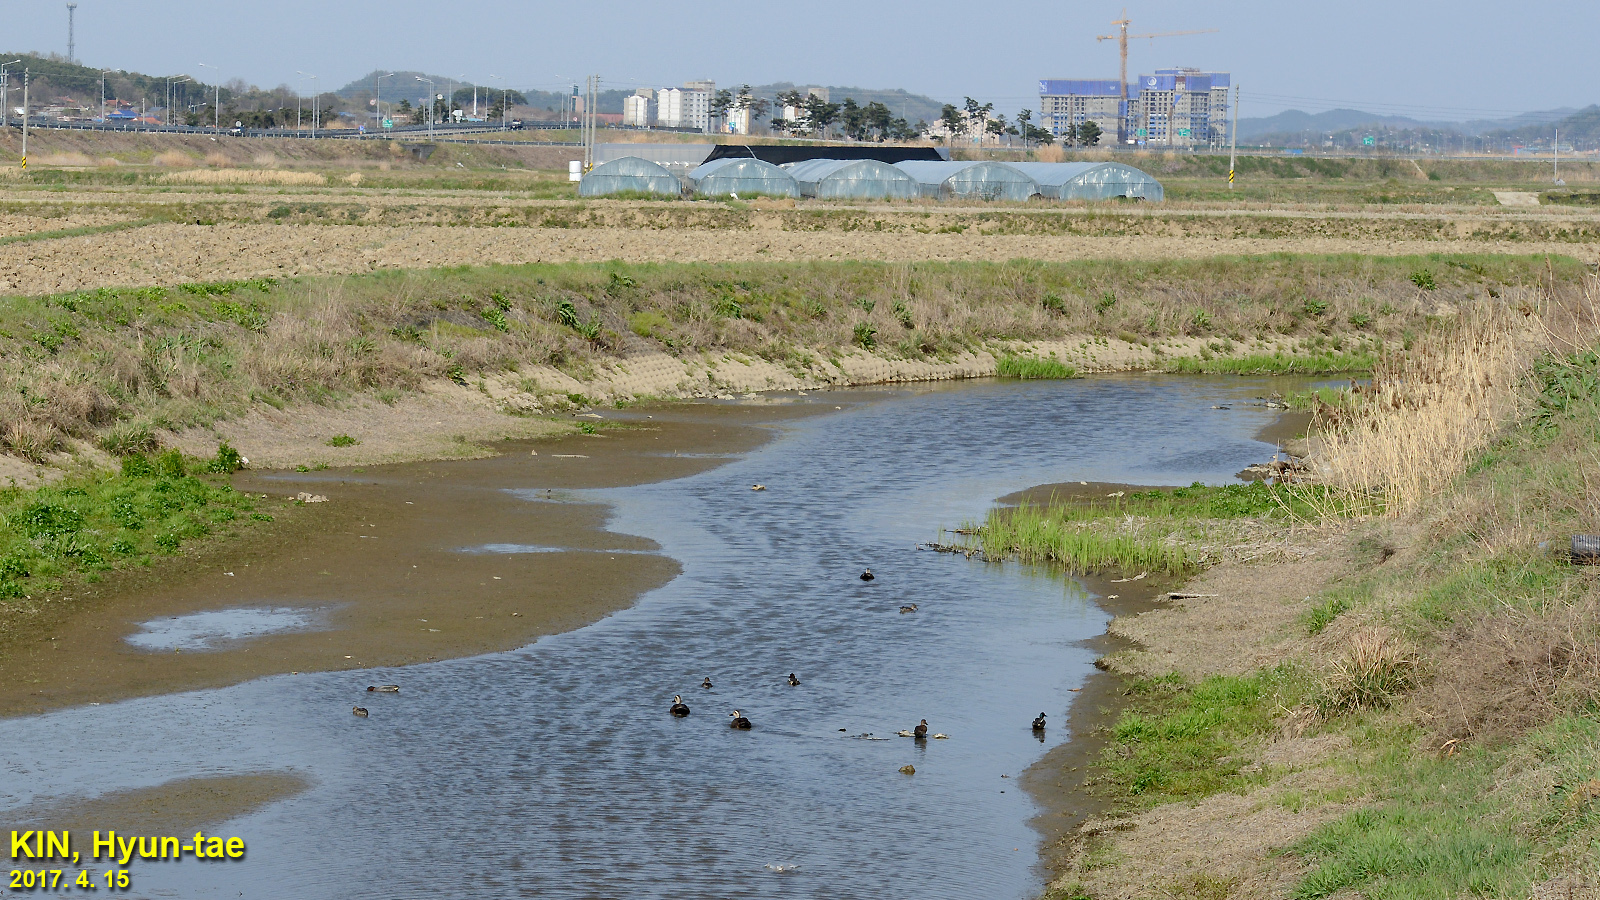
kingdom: Animalia
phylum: Chordata
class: Aves
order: Anseriformes
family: Anatidae
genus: Anas
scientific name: Anas zonorhyncha
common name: Eastern spot-billed duck
